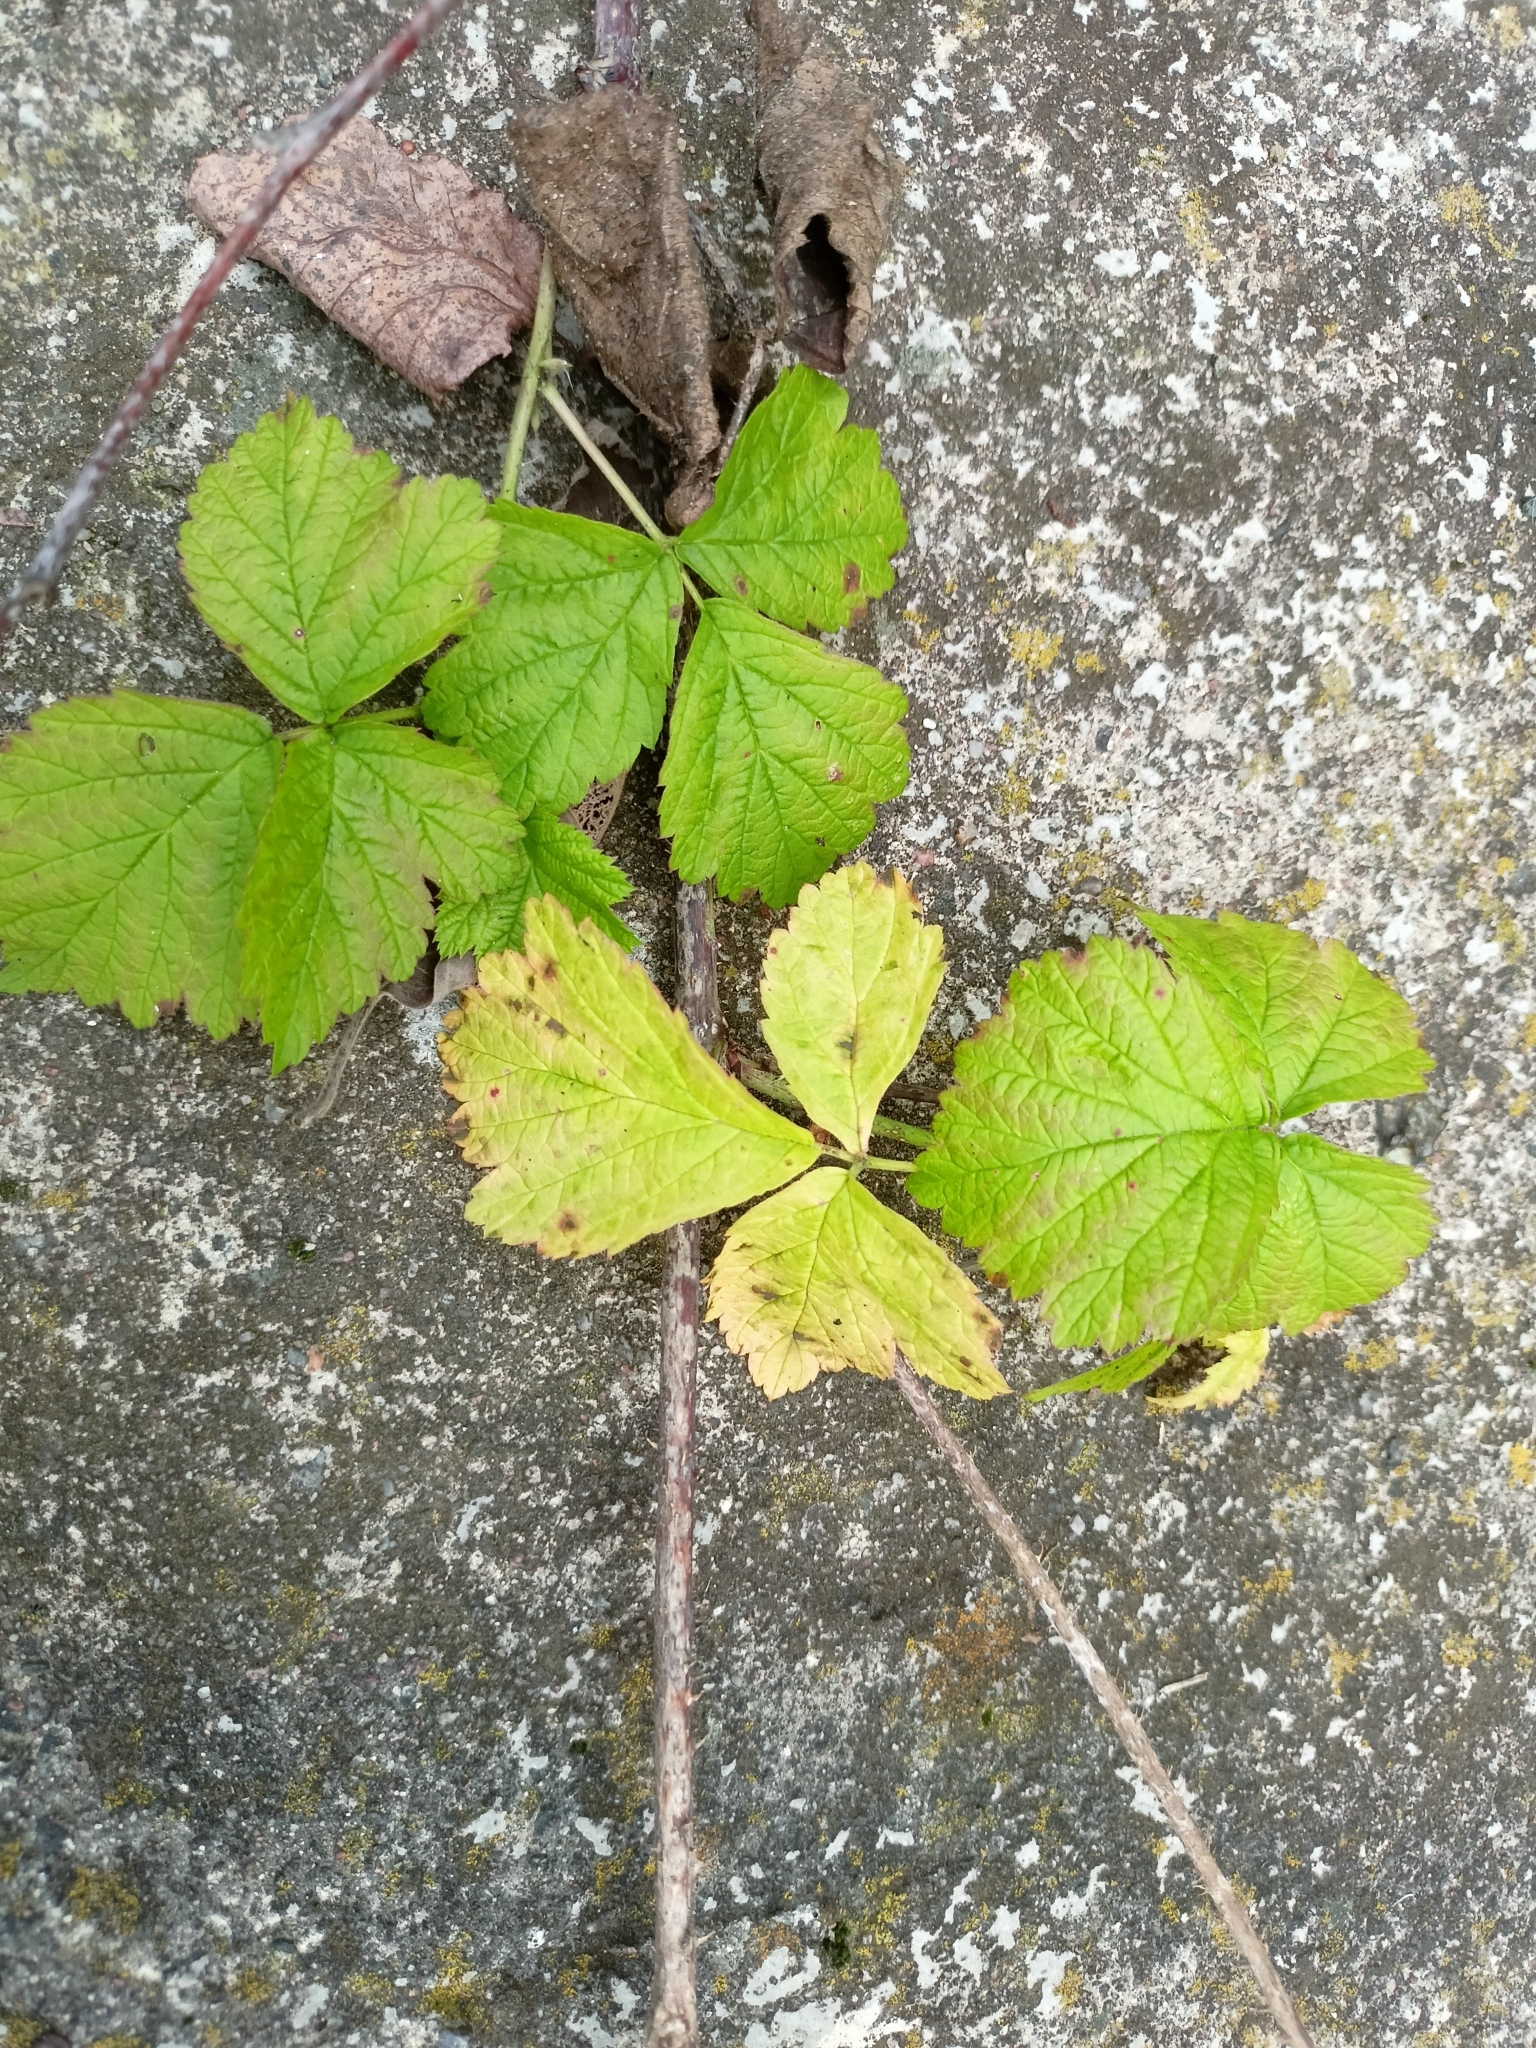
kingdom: Plantae
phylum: Tracheophyta
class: Magnoliopsida
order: Rosales
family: Rosaceae
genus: Rubus
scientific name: Rubus caesius
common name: Dewberry
